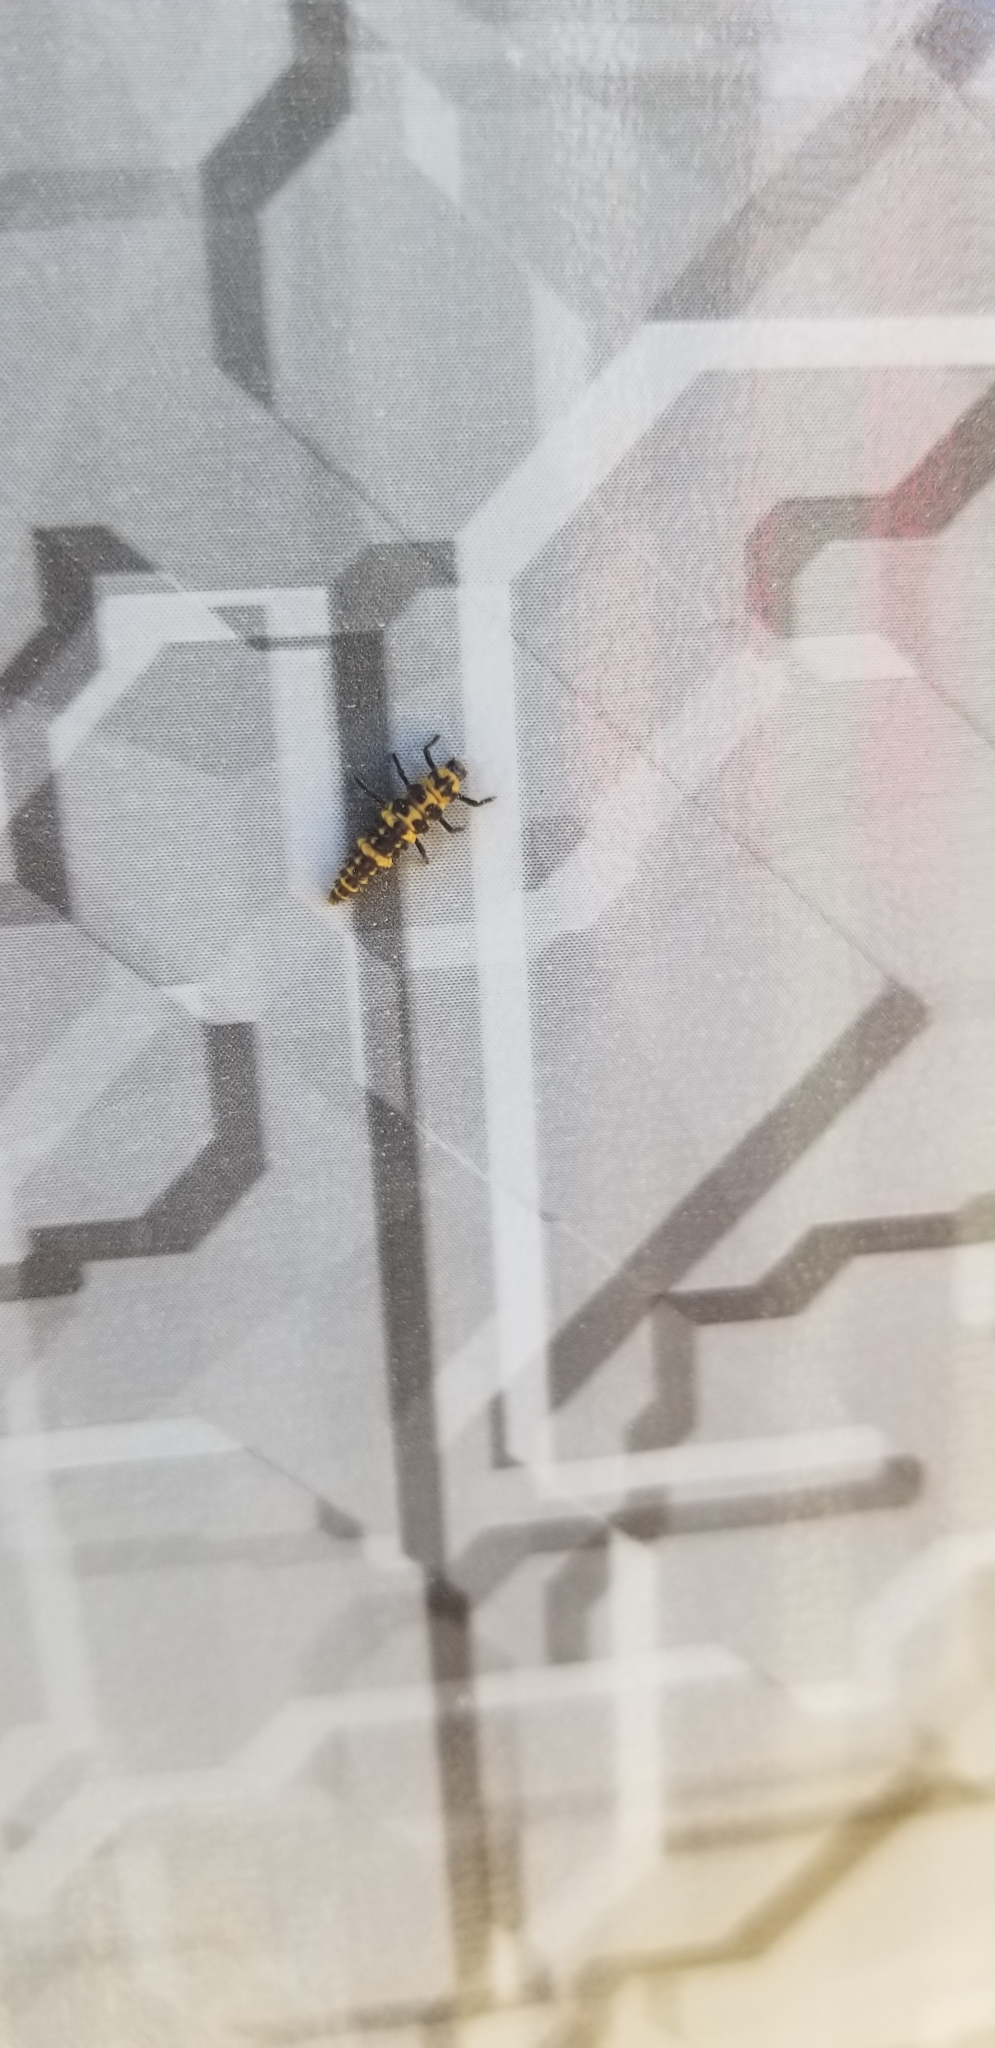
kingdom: Animalia
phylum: Arthropoda
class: Insecta
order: Coleoptera
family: Coccinellidae
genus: Coleomegilla
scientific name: Coleomegilla maculata
